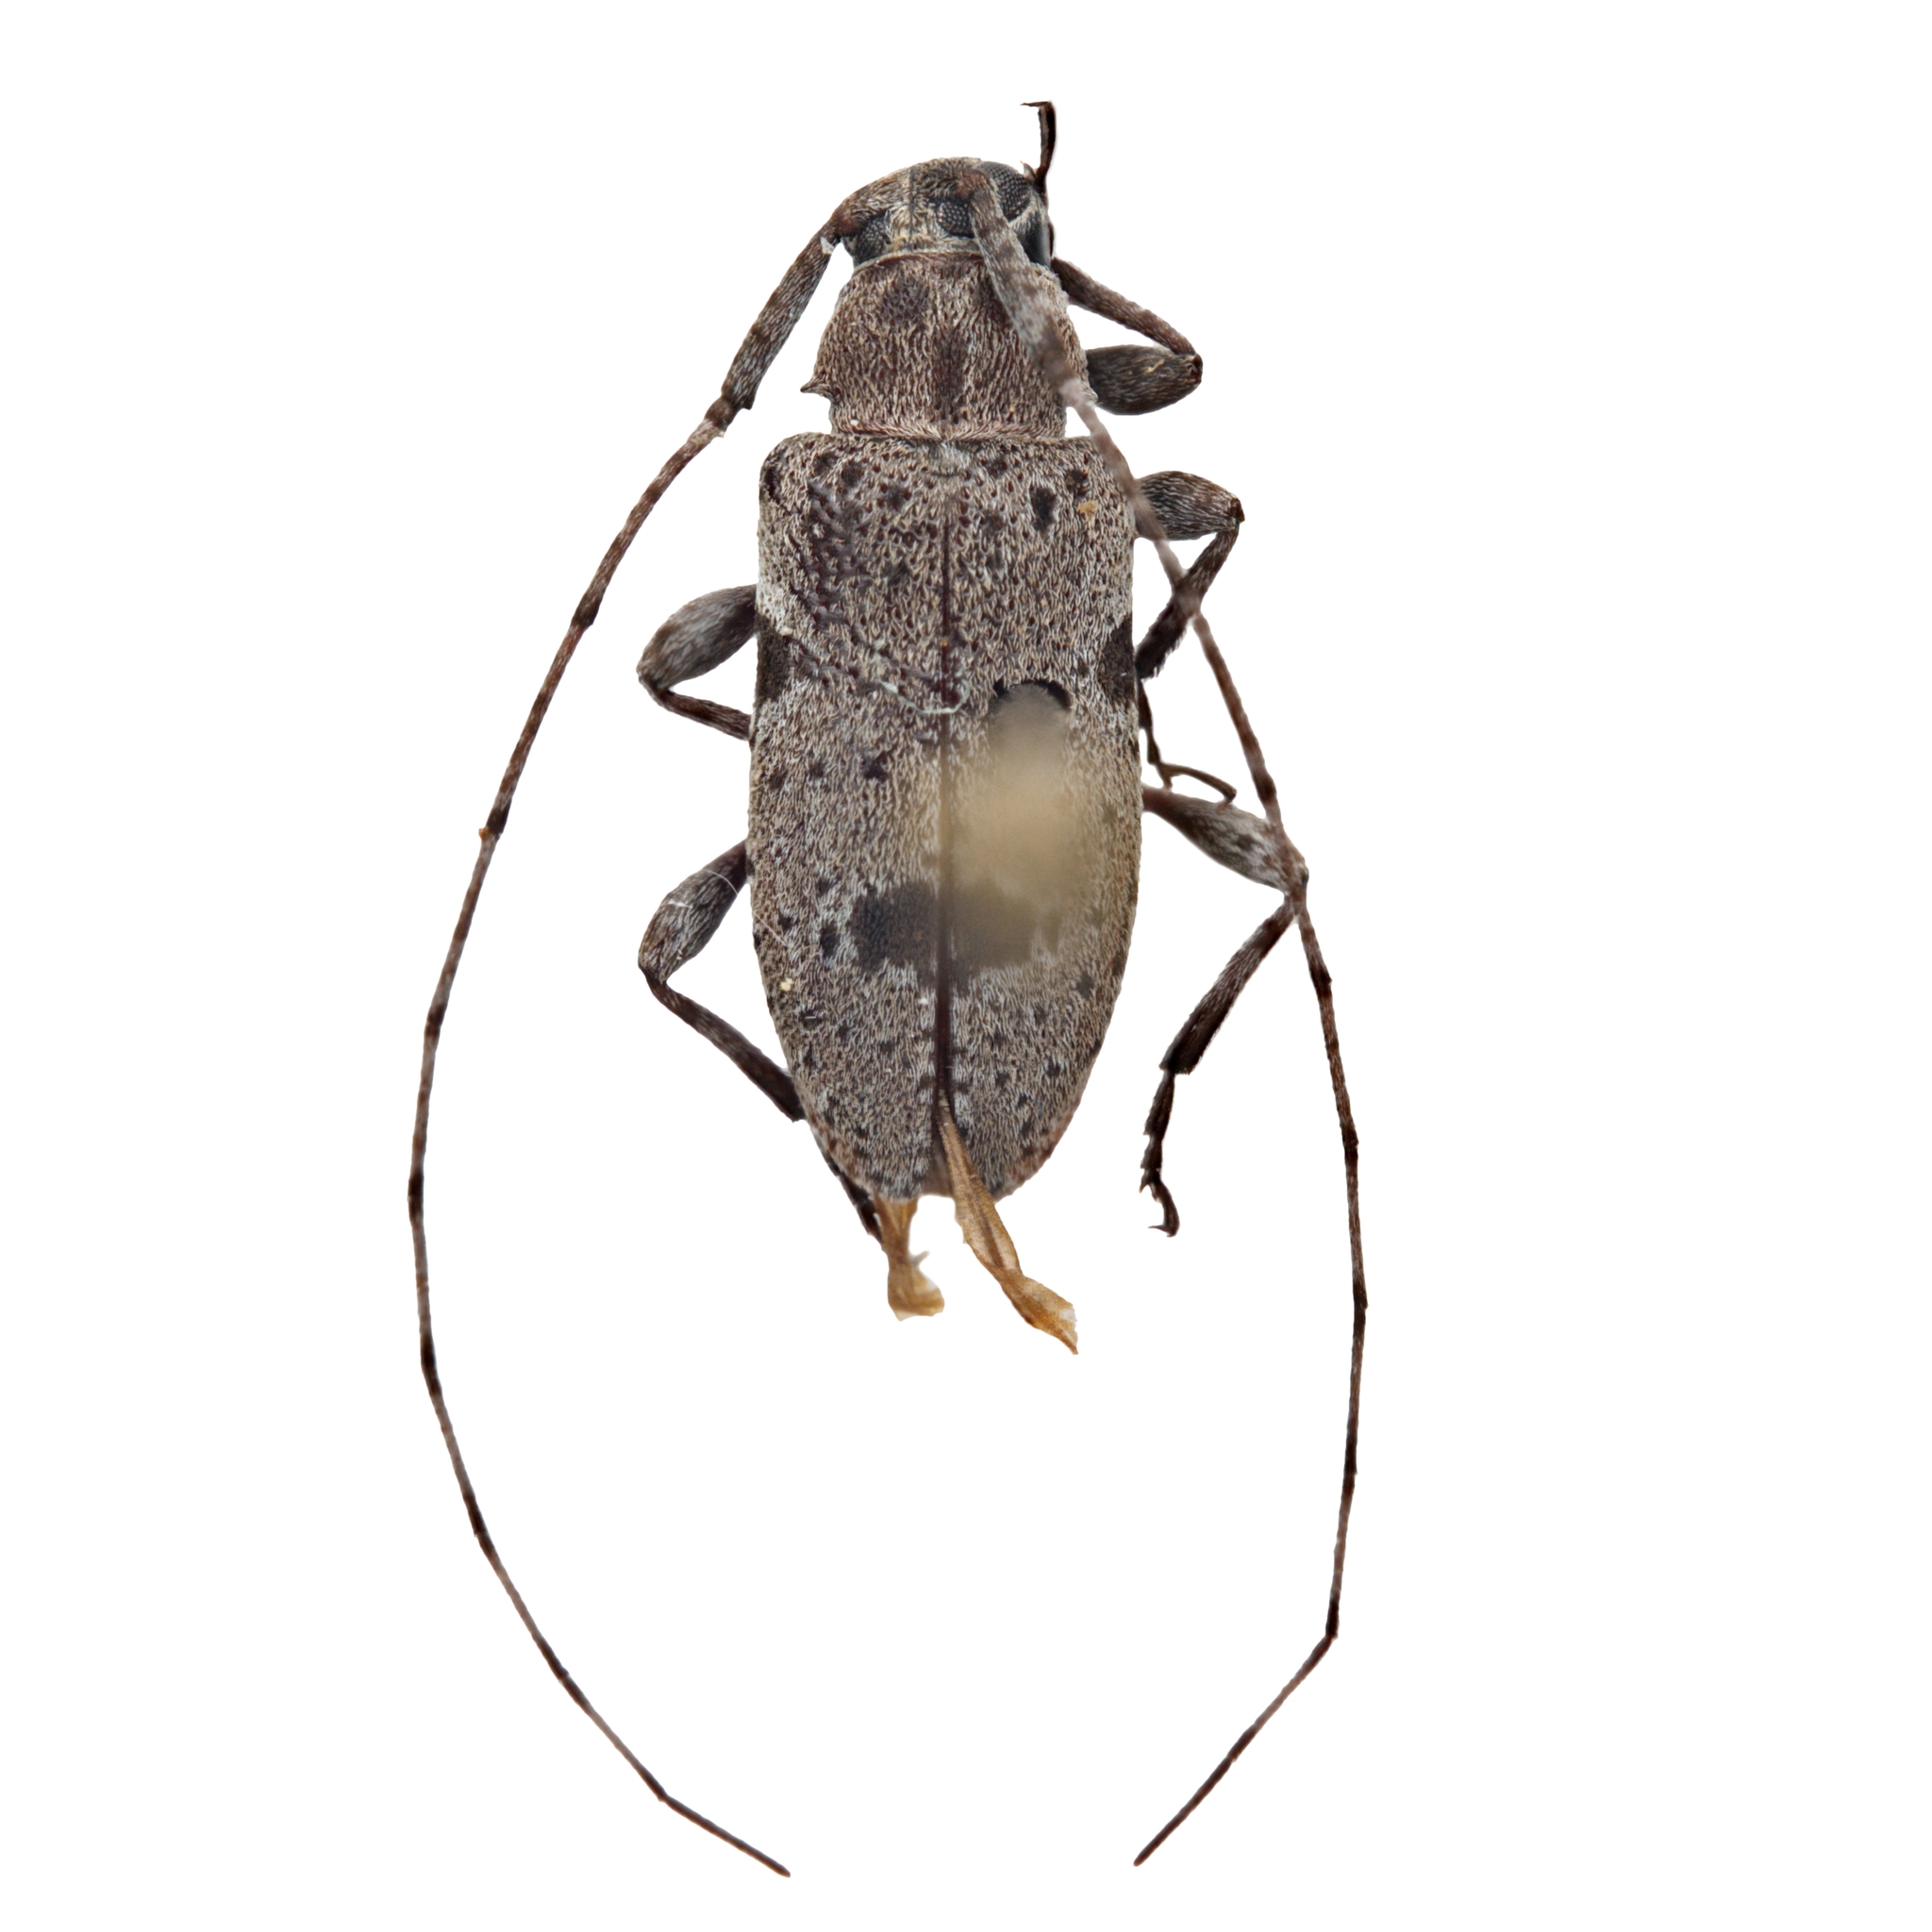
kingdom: Animalia
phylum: Arthropoda
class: Insecta
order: Coleoptera
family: Cerambycidae
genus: Sternidius
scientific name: Sternidius imitans
